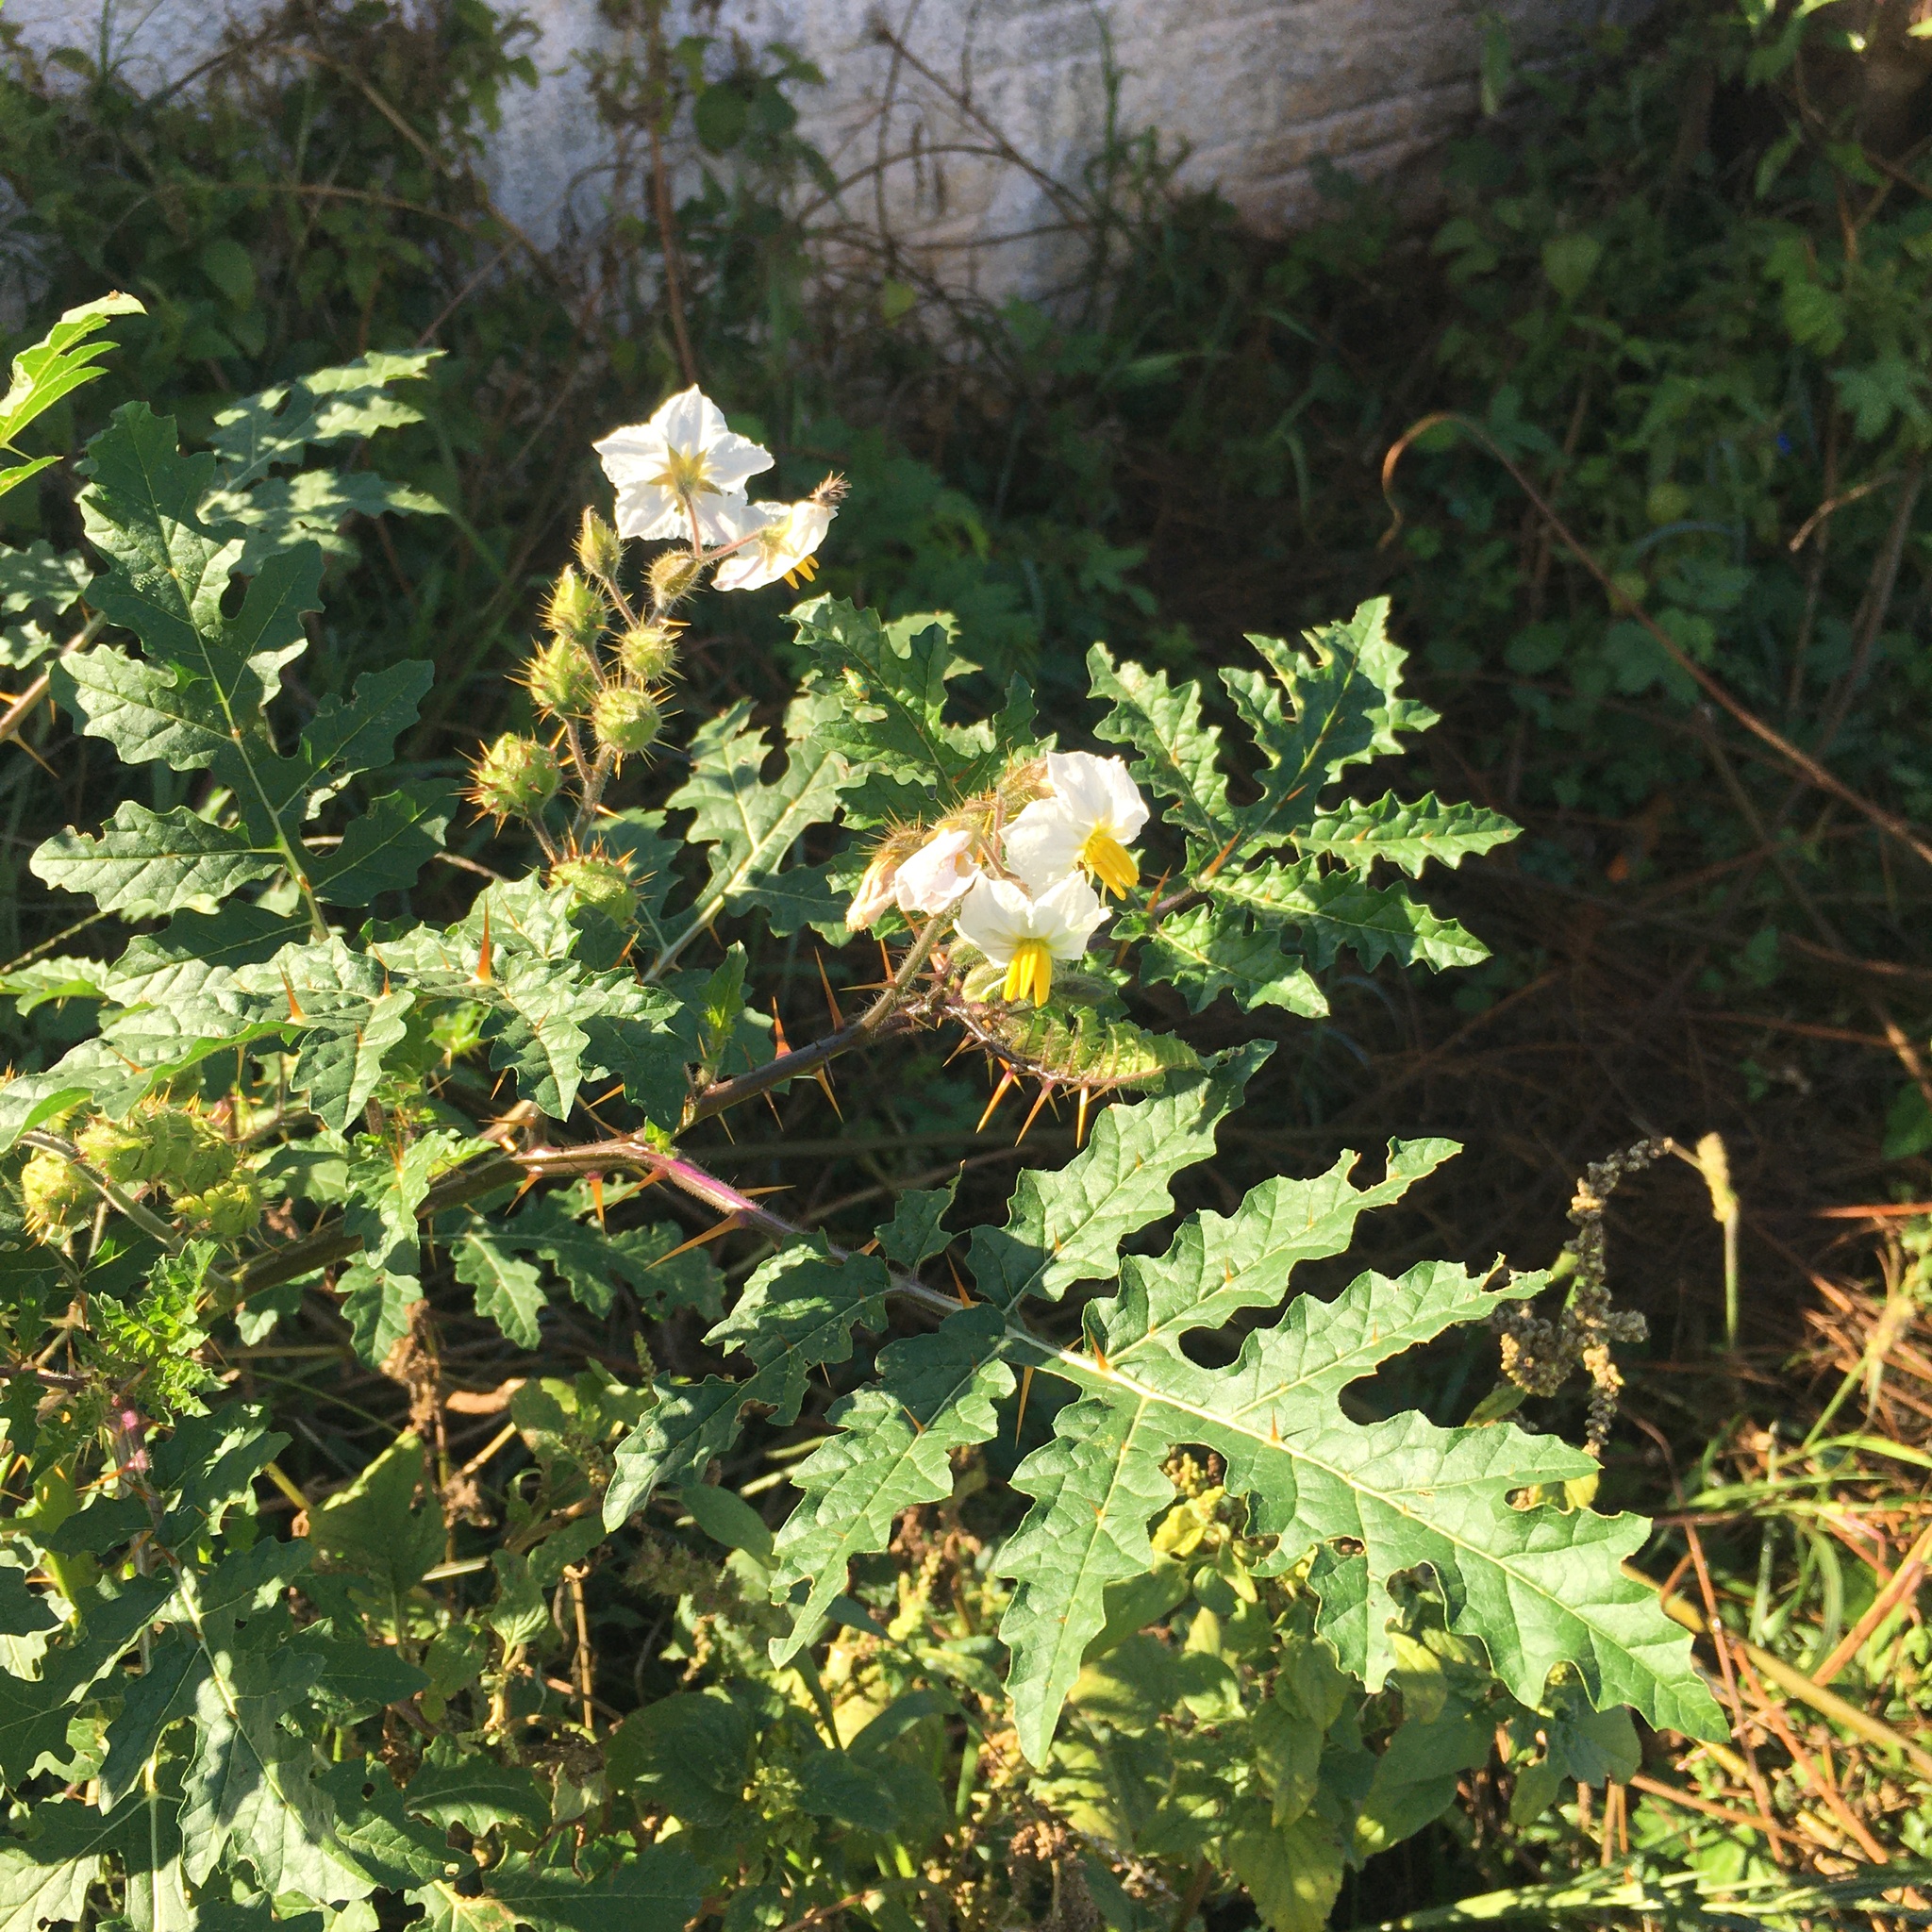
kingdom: Plantae
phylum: Tracheophyta
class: Magnoliopsida
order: Solanales
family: Solanaceae
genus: Solanum
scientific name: Solanum sisymbriifolium
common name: Red buffalo-bur
